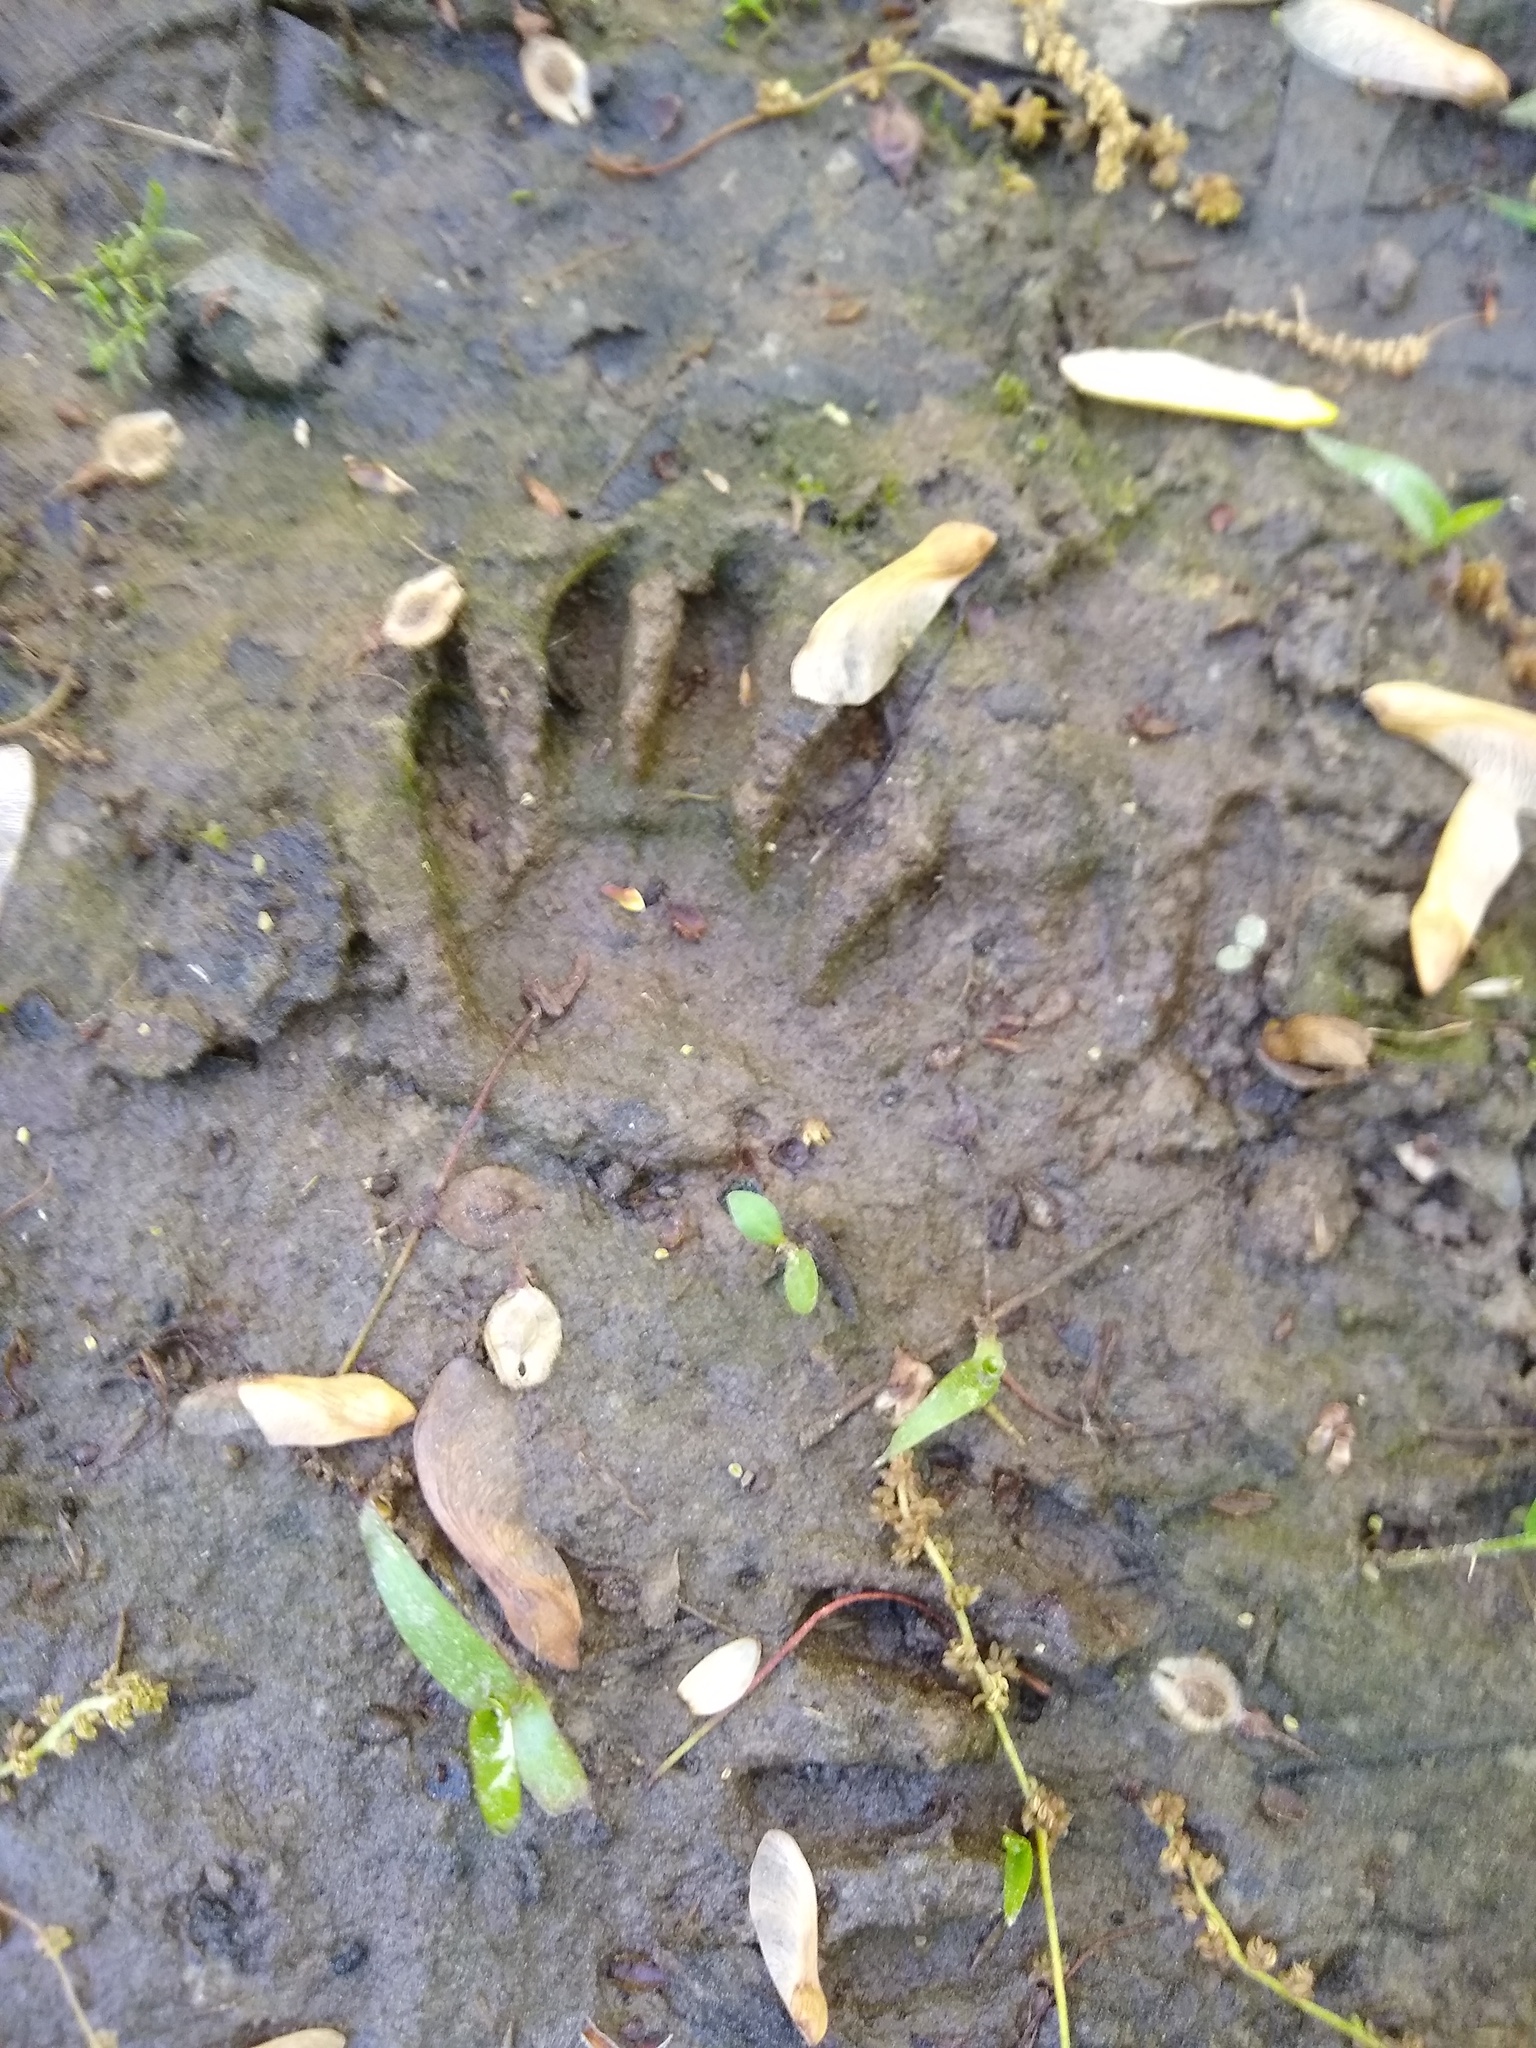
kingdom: Animalia
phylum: Chordata
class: Mammalia
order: Carnivora
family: Procyonidae
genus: Procyon
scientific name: Procyon lotor
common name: Raccoon
